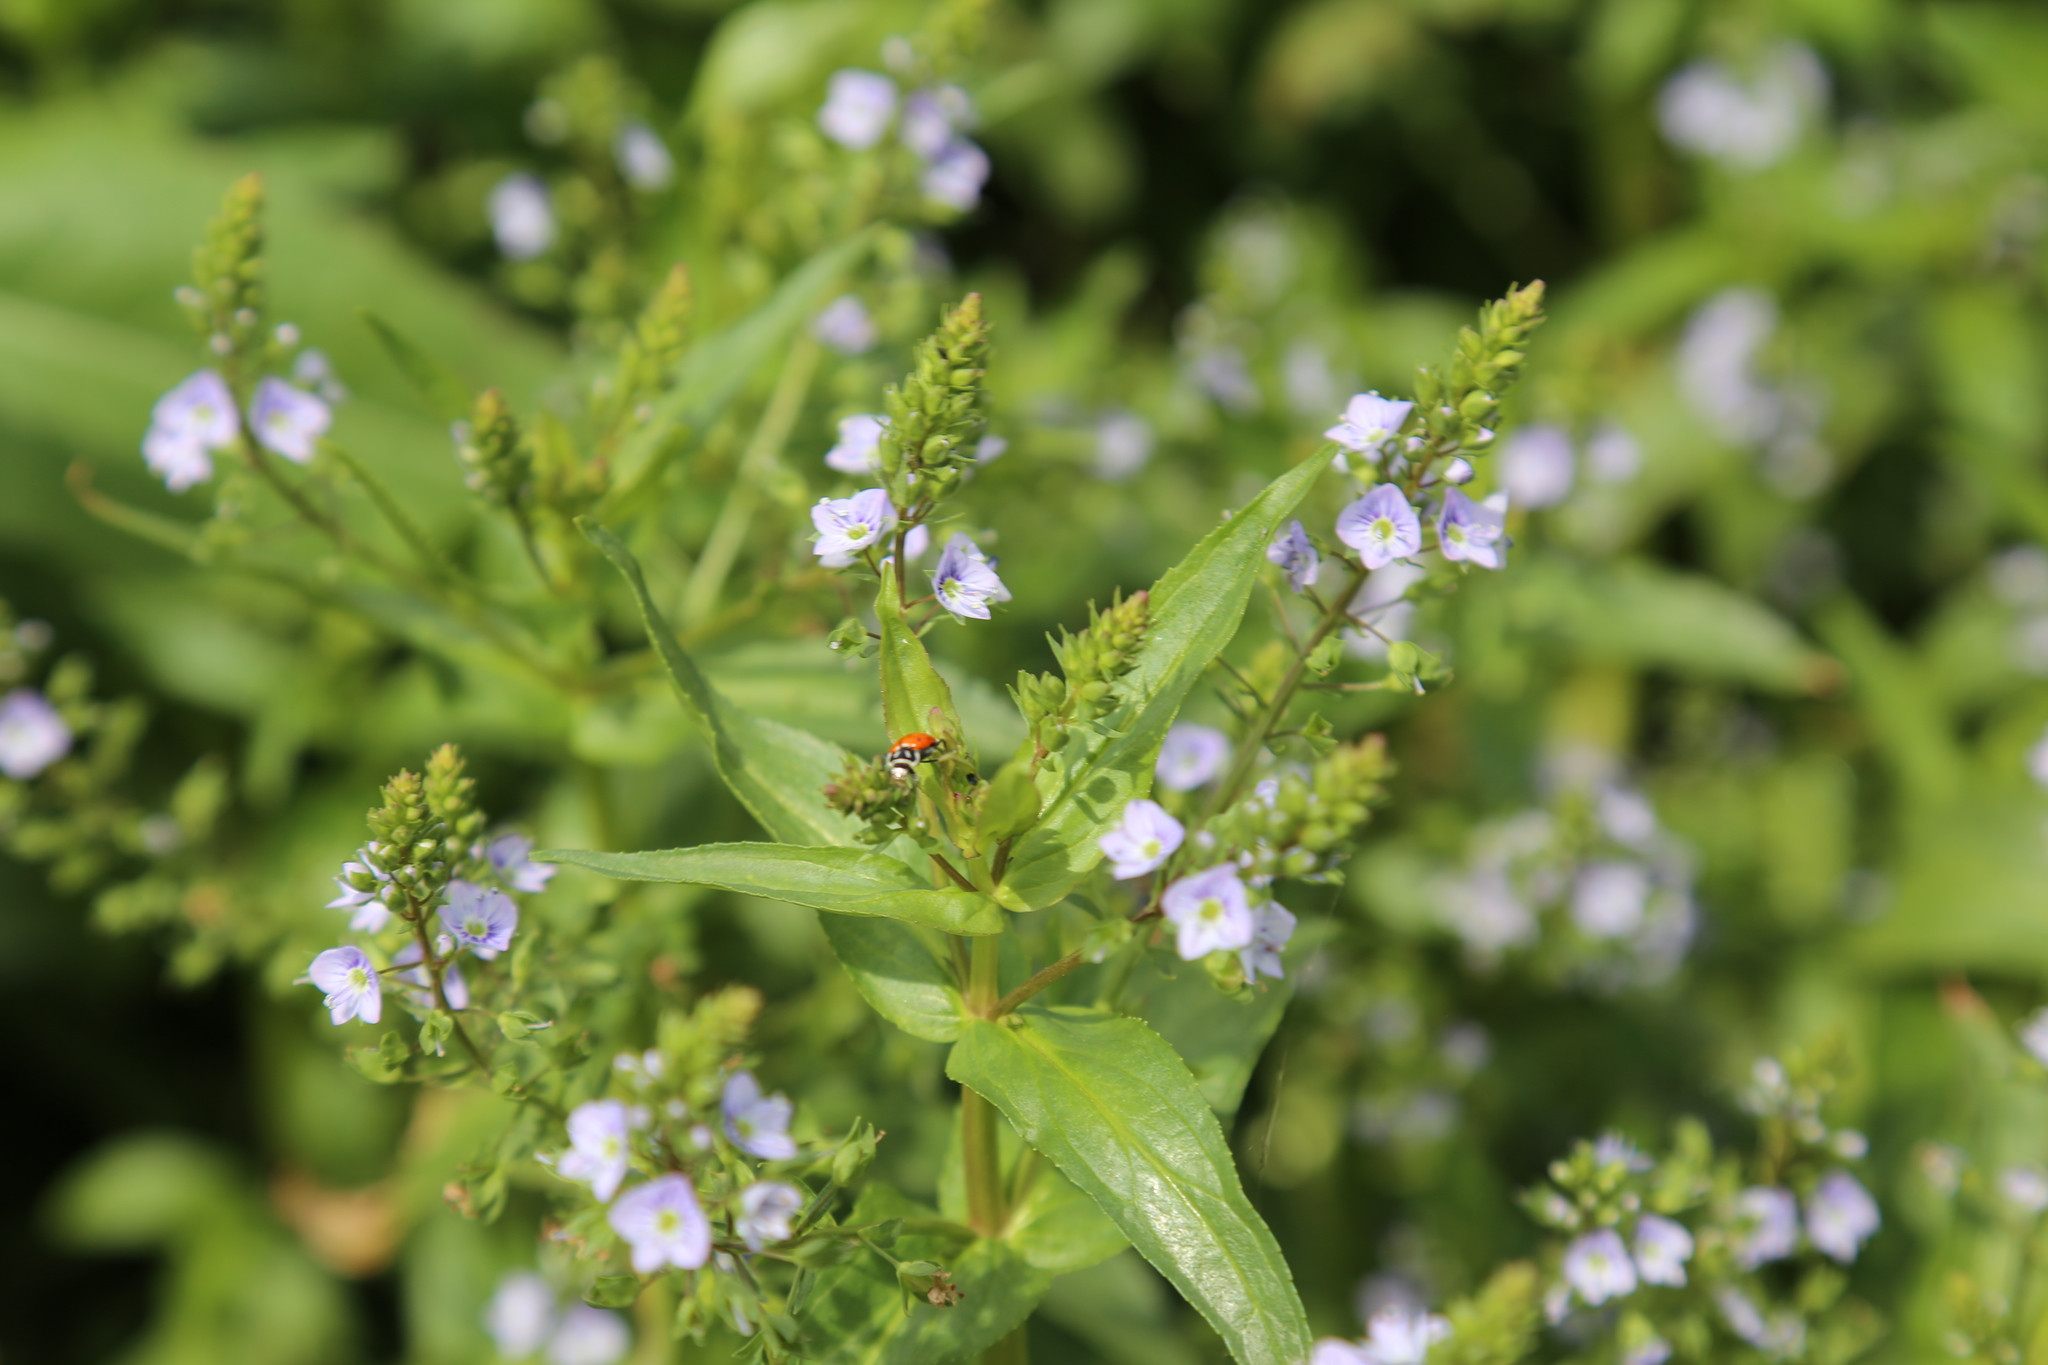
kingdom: Plantae
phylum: Tracheophyta
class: Magnoliopsida
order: Lamiales
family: Plantaginaceae
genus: Veronica
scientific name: Veronica anagallis-aquatica
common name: Water speedwell
